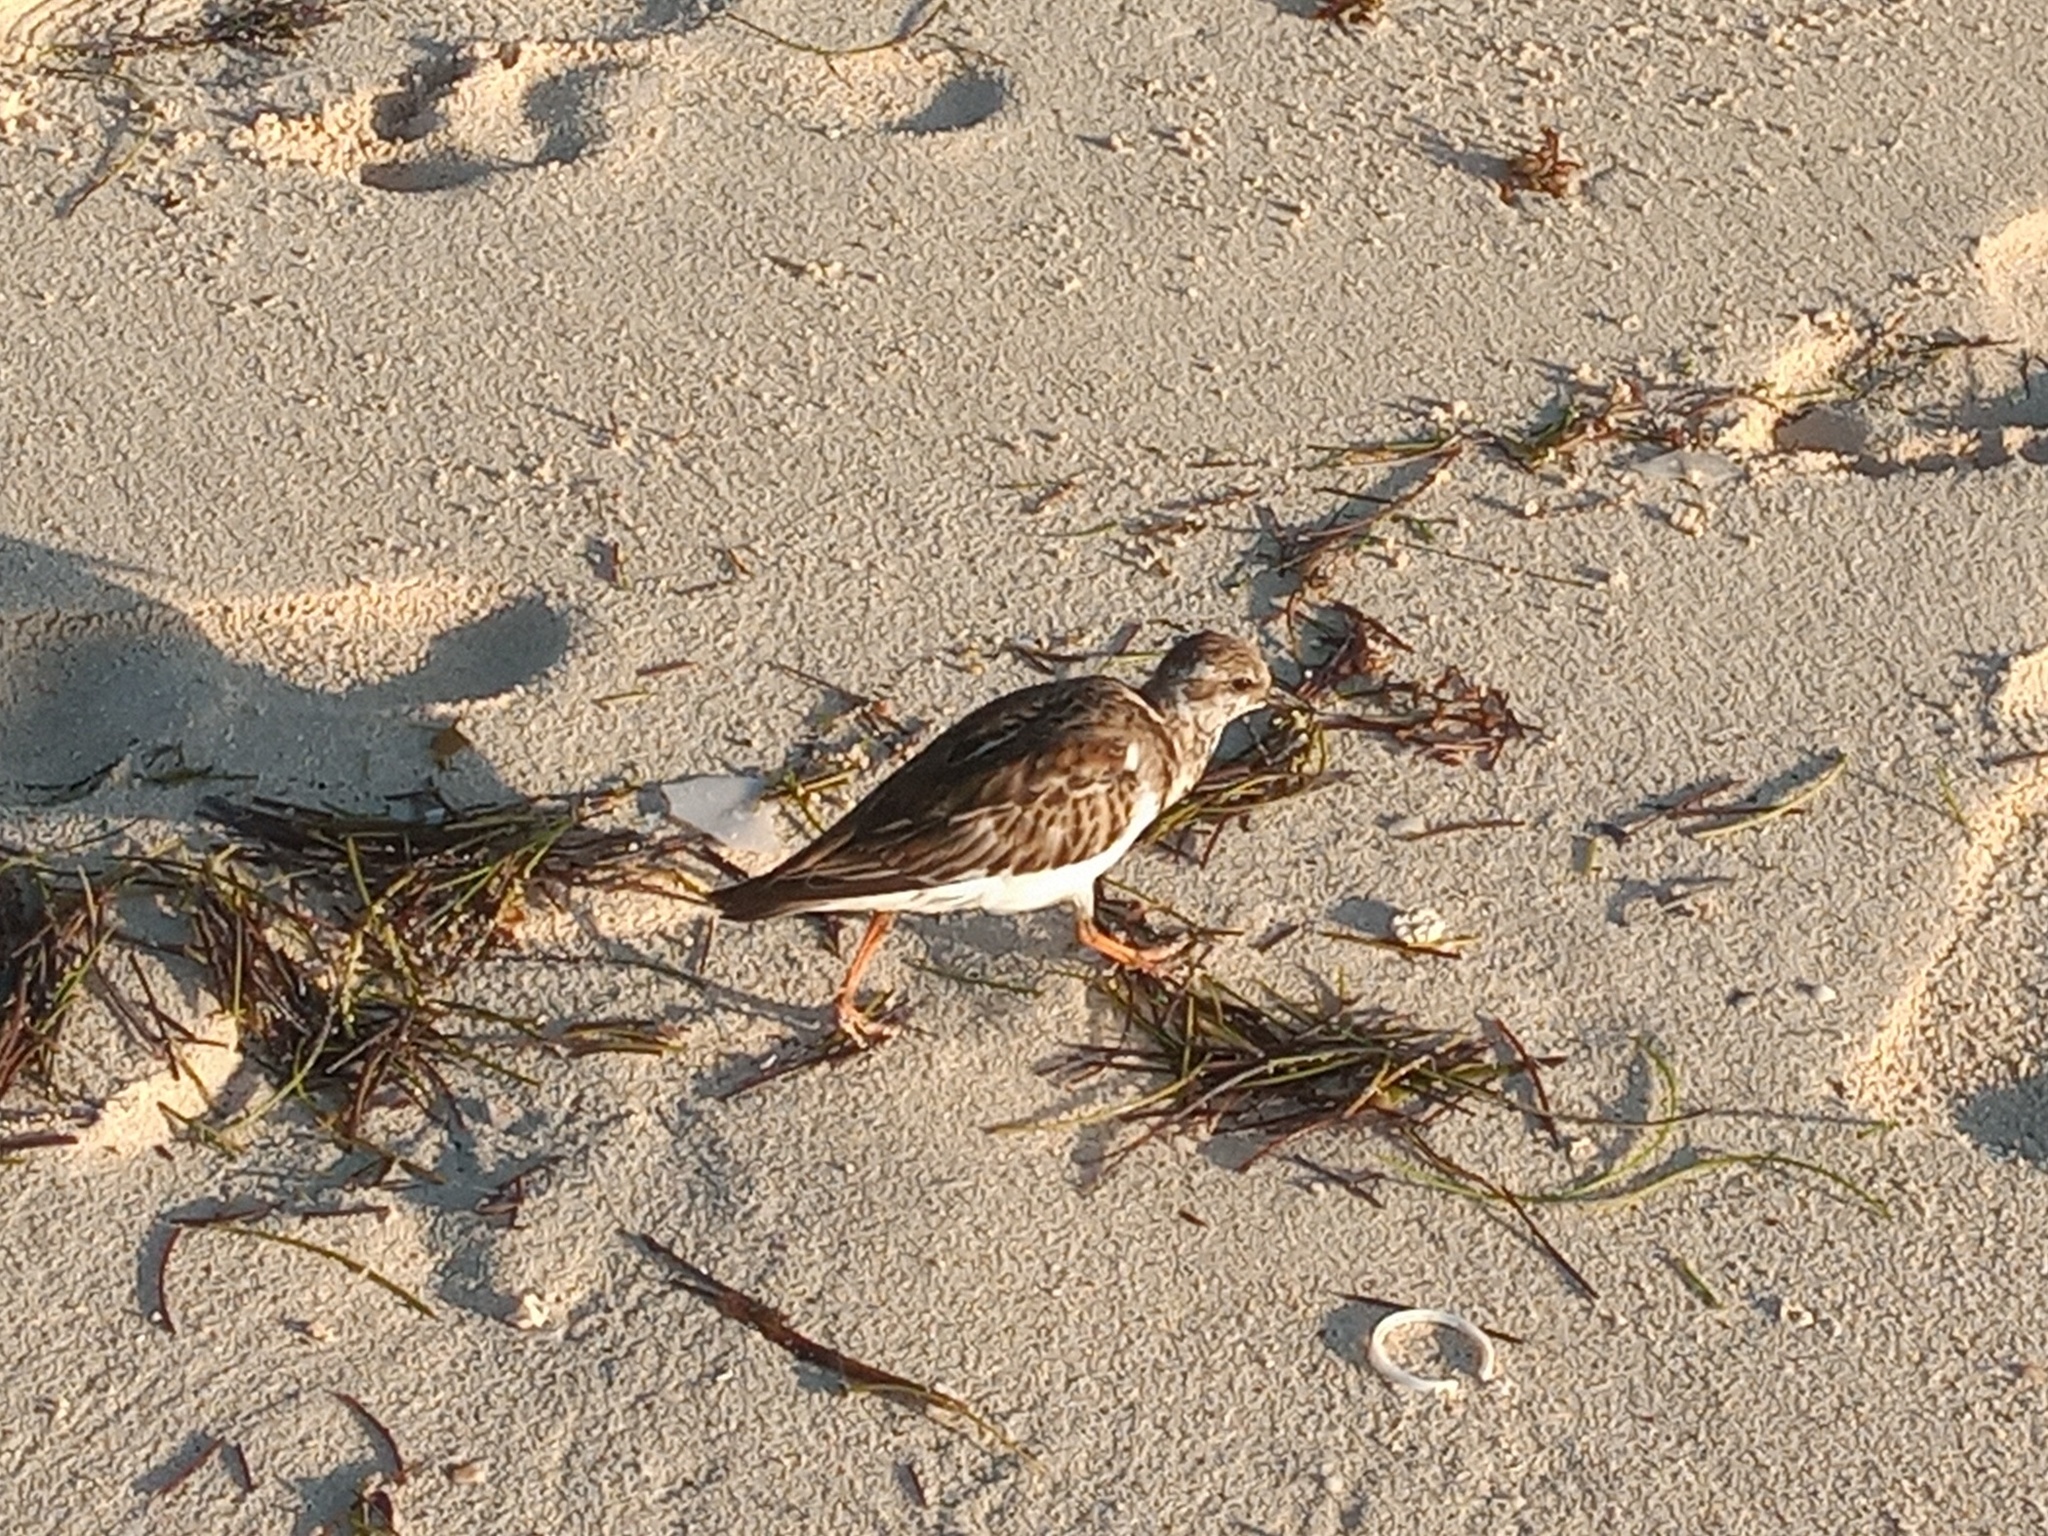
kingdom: Animalia
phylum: Chordata
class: Aves
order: Charadriiformes
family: Scolopacidae
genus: Arenaria
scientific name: Arenaria interpres
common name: Ruddy turnstone
